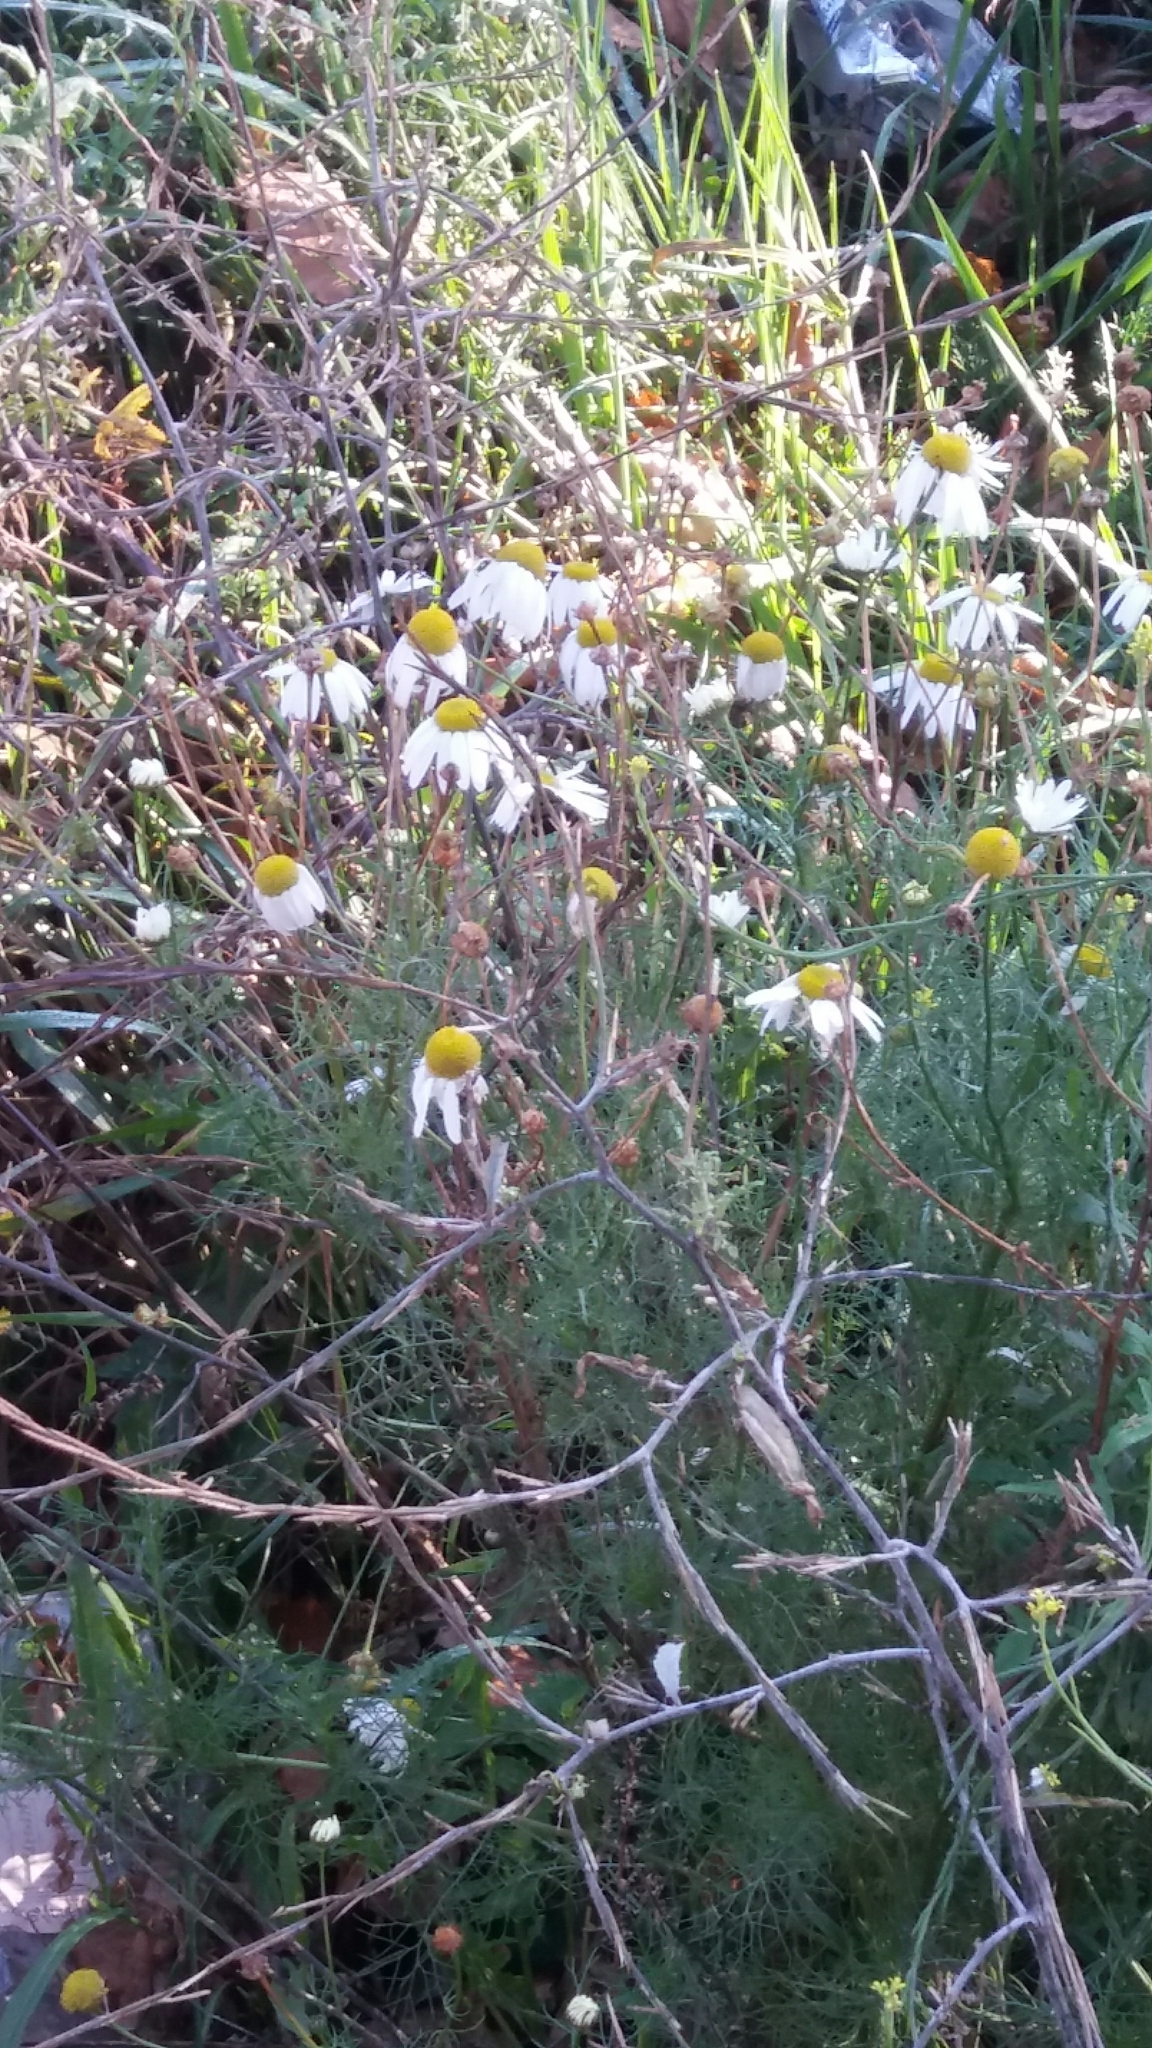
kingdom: Plantae
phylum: Tracheophyta
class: Magnoliopsida
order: Asterales
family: Asteraceae
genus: Tripleurospermum
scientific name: Tripleurospermum inodorum
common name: Scentless mayweed
